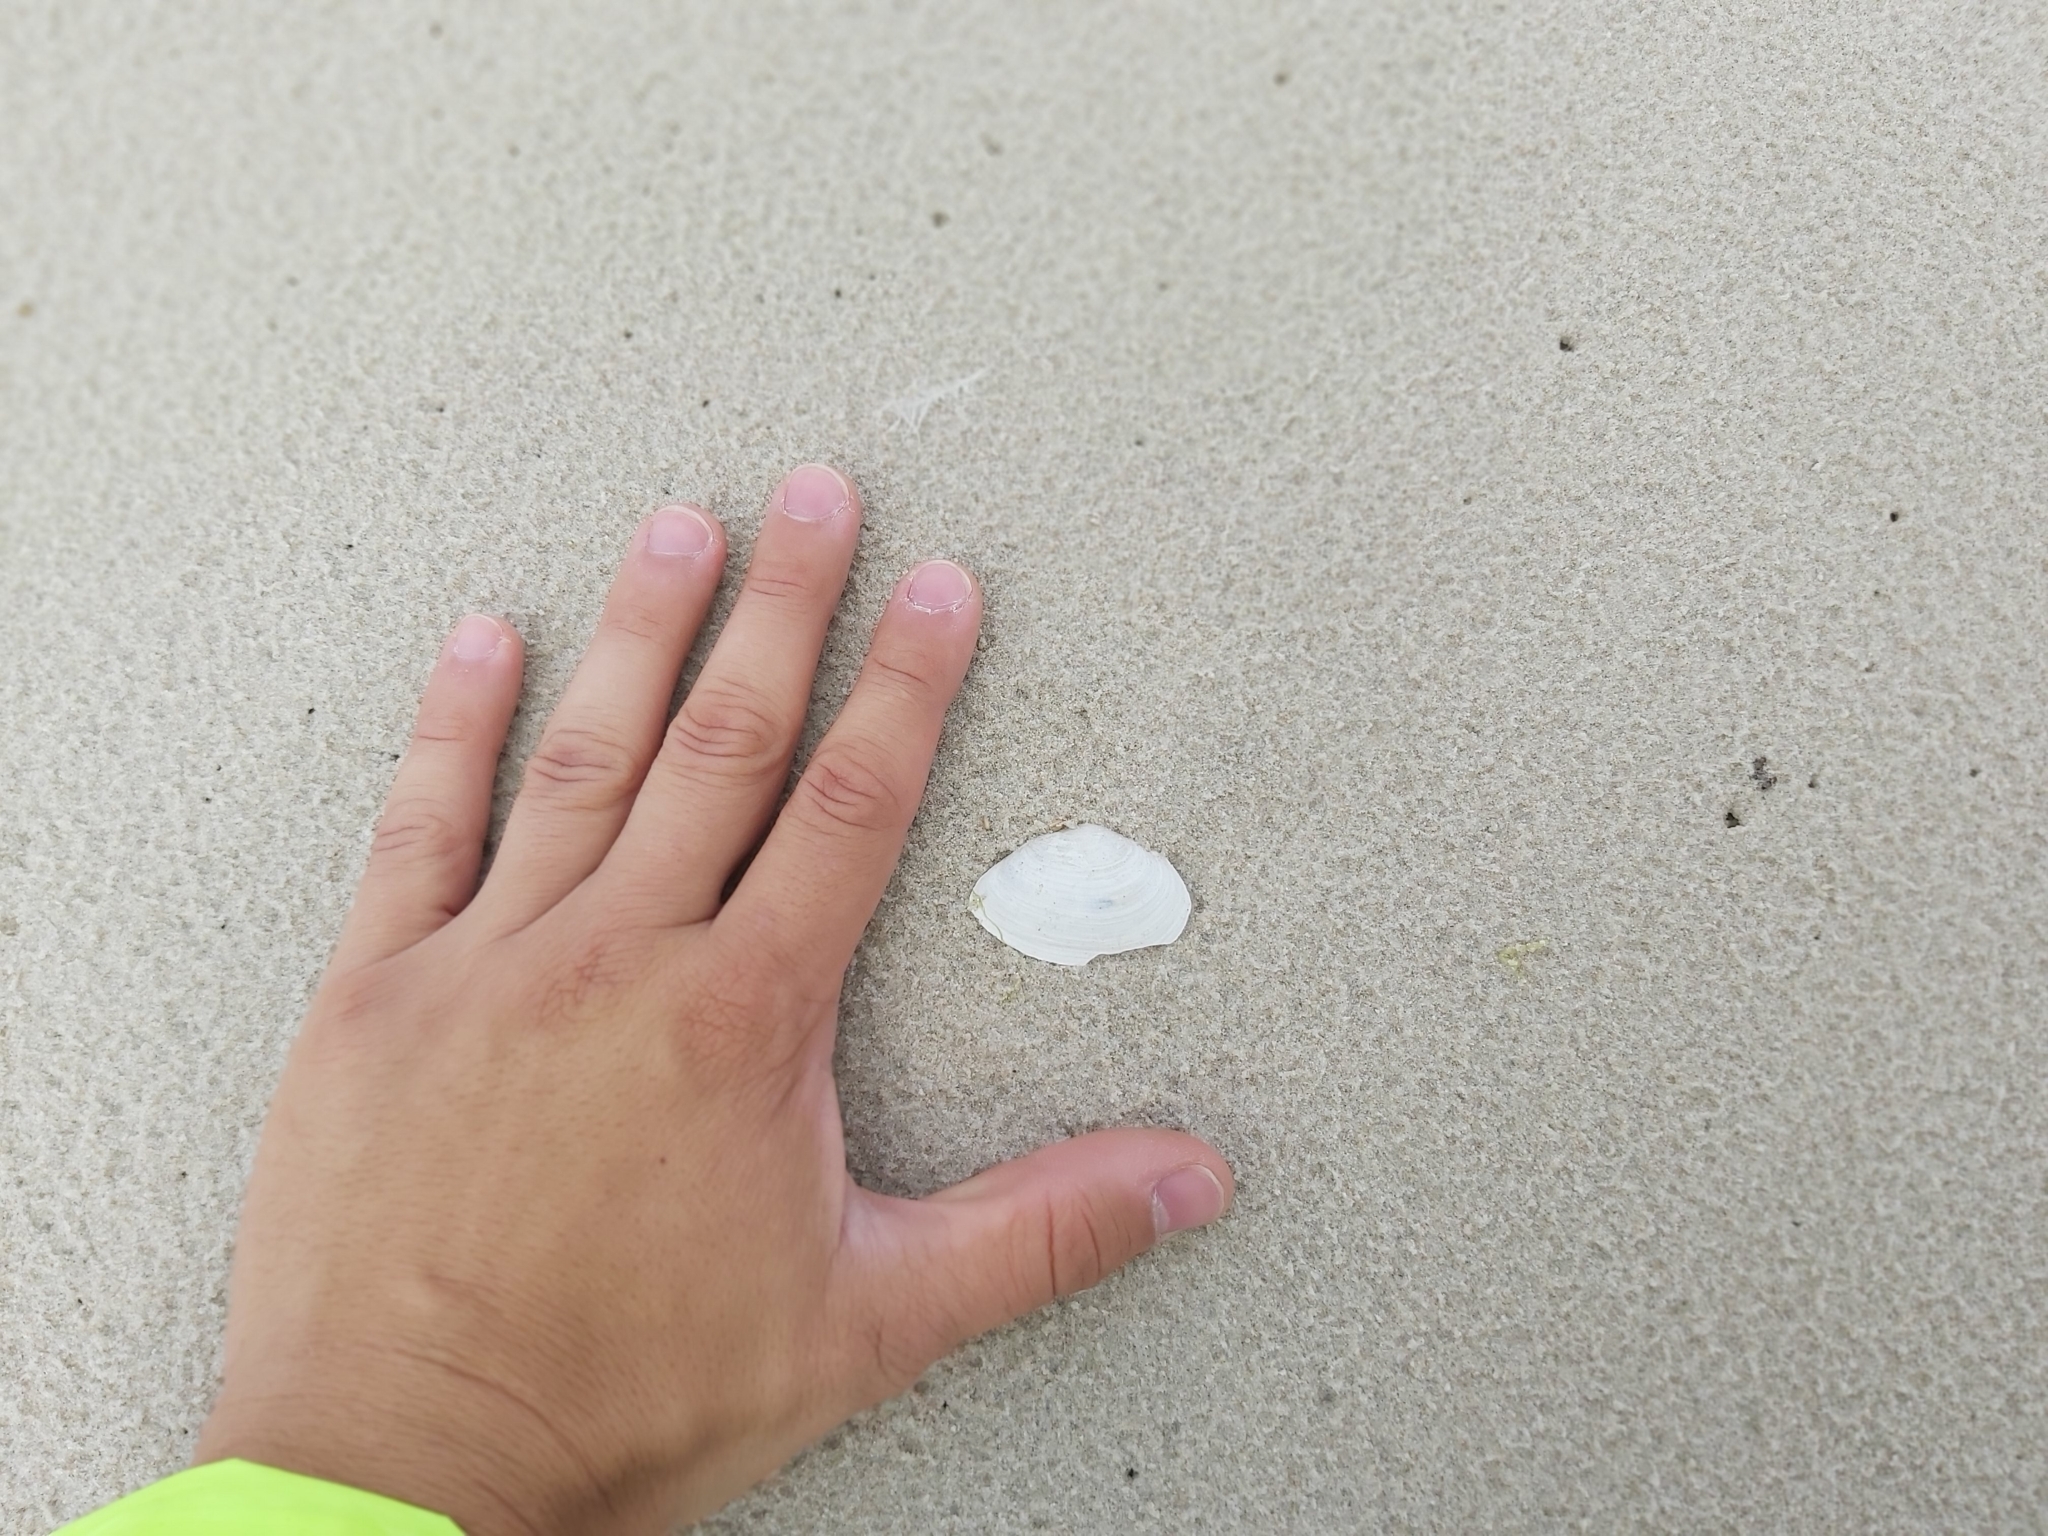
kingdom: Animalia
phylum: Mollusca
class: Bivalvia
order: Myida
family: Myidae
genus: Mya
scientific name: Mya arenaria
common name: Soft-shelled clam
